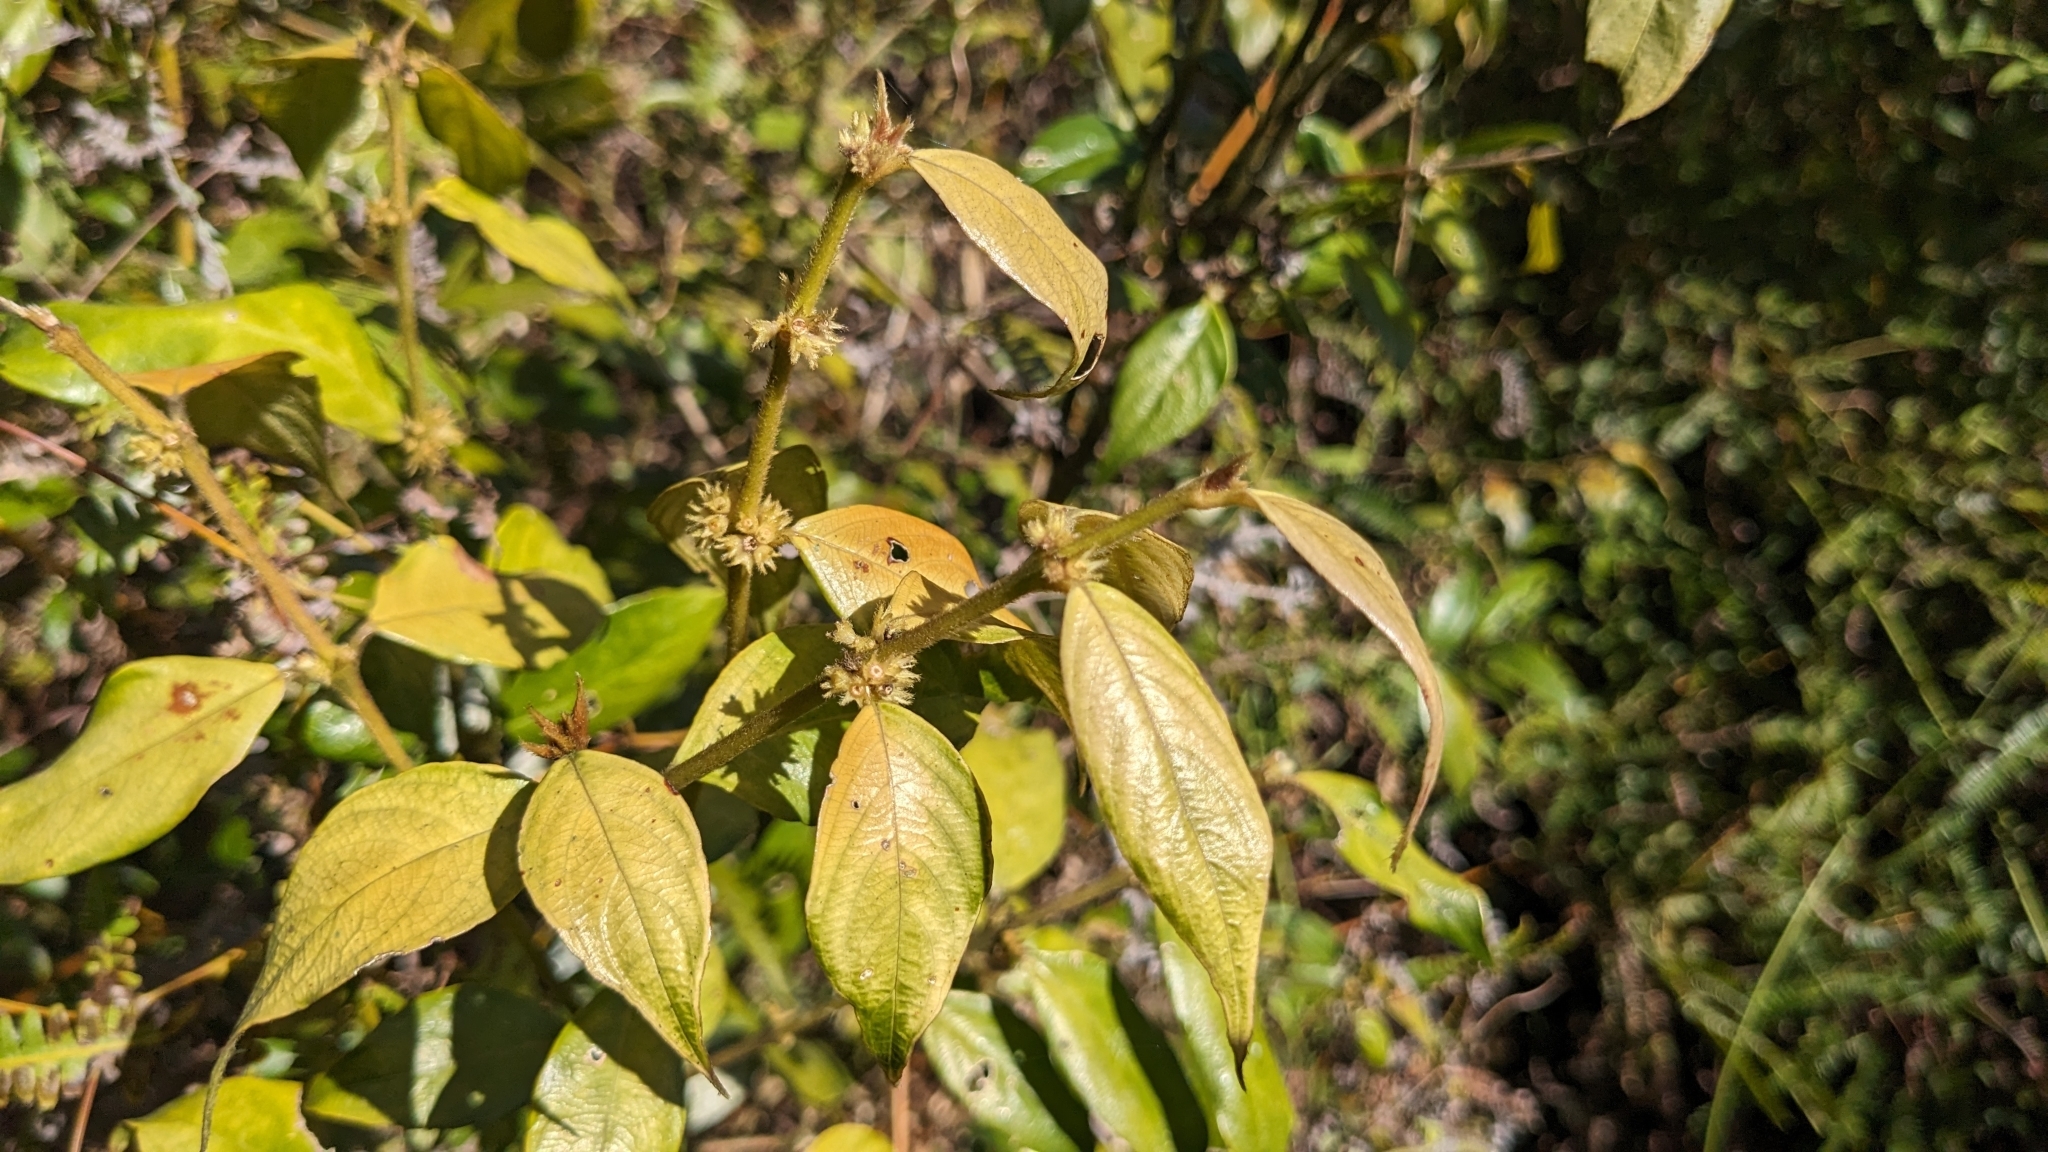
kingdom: Plantae
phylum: Tracheophyta
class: Magnoliopsida
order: Gentianales
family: Rubiaceae
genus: Lasianthus
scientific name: Lasianthus curtisii
